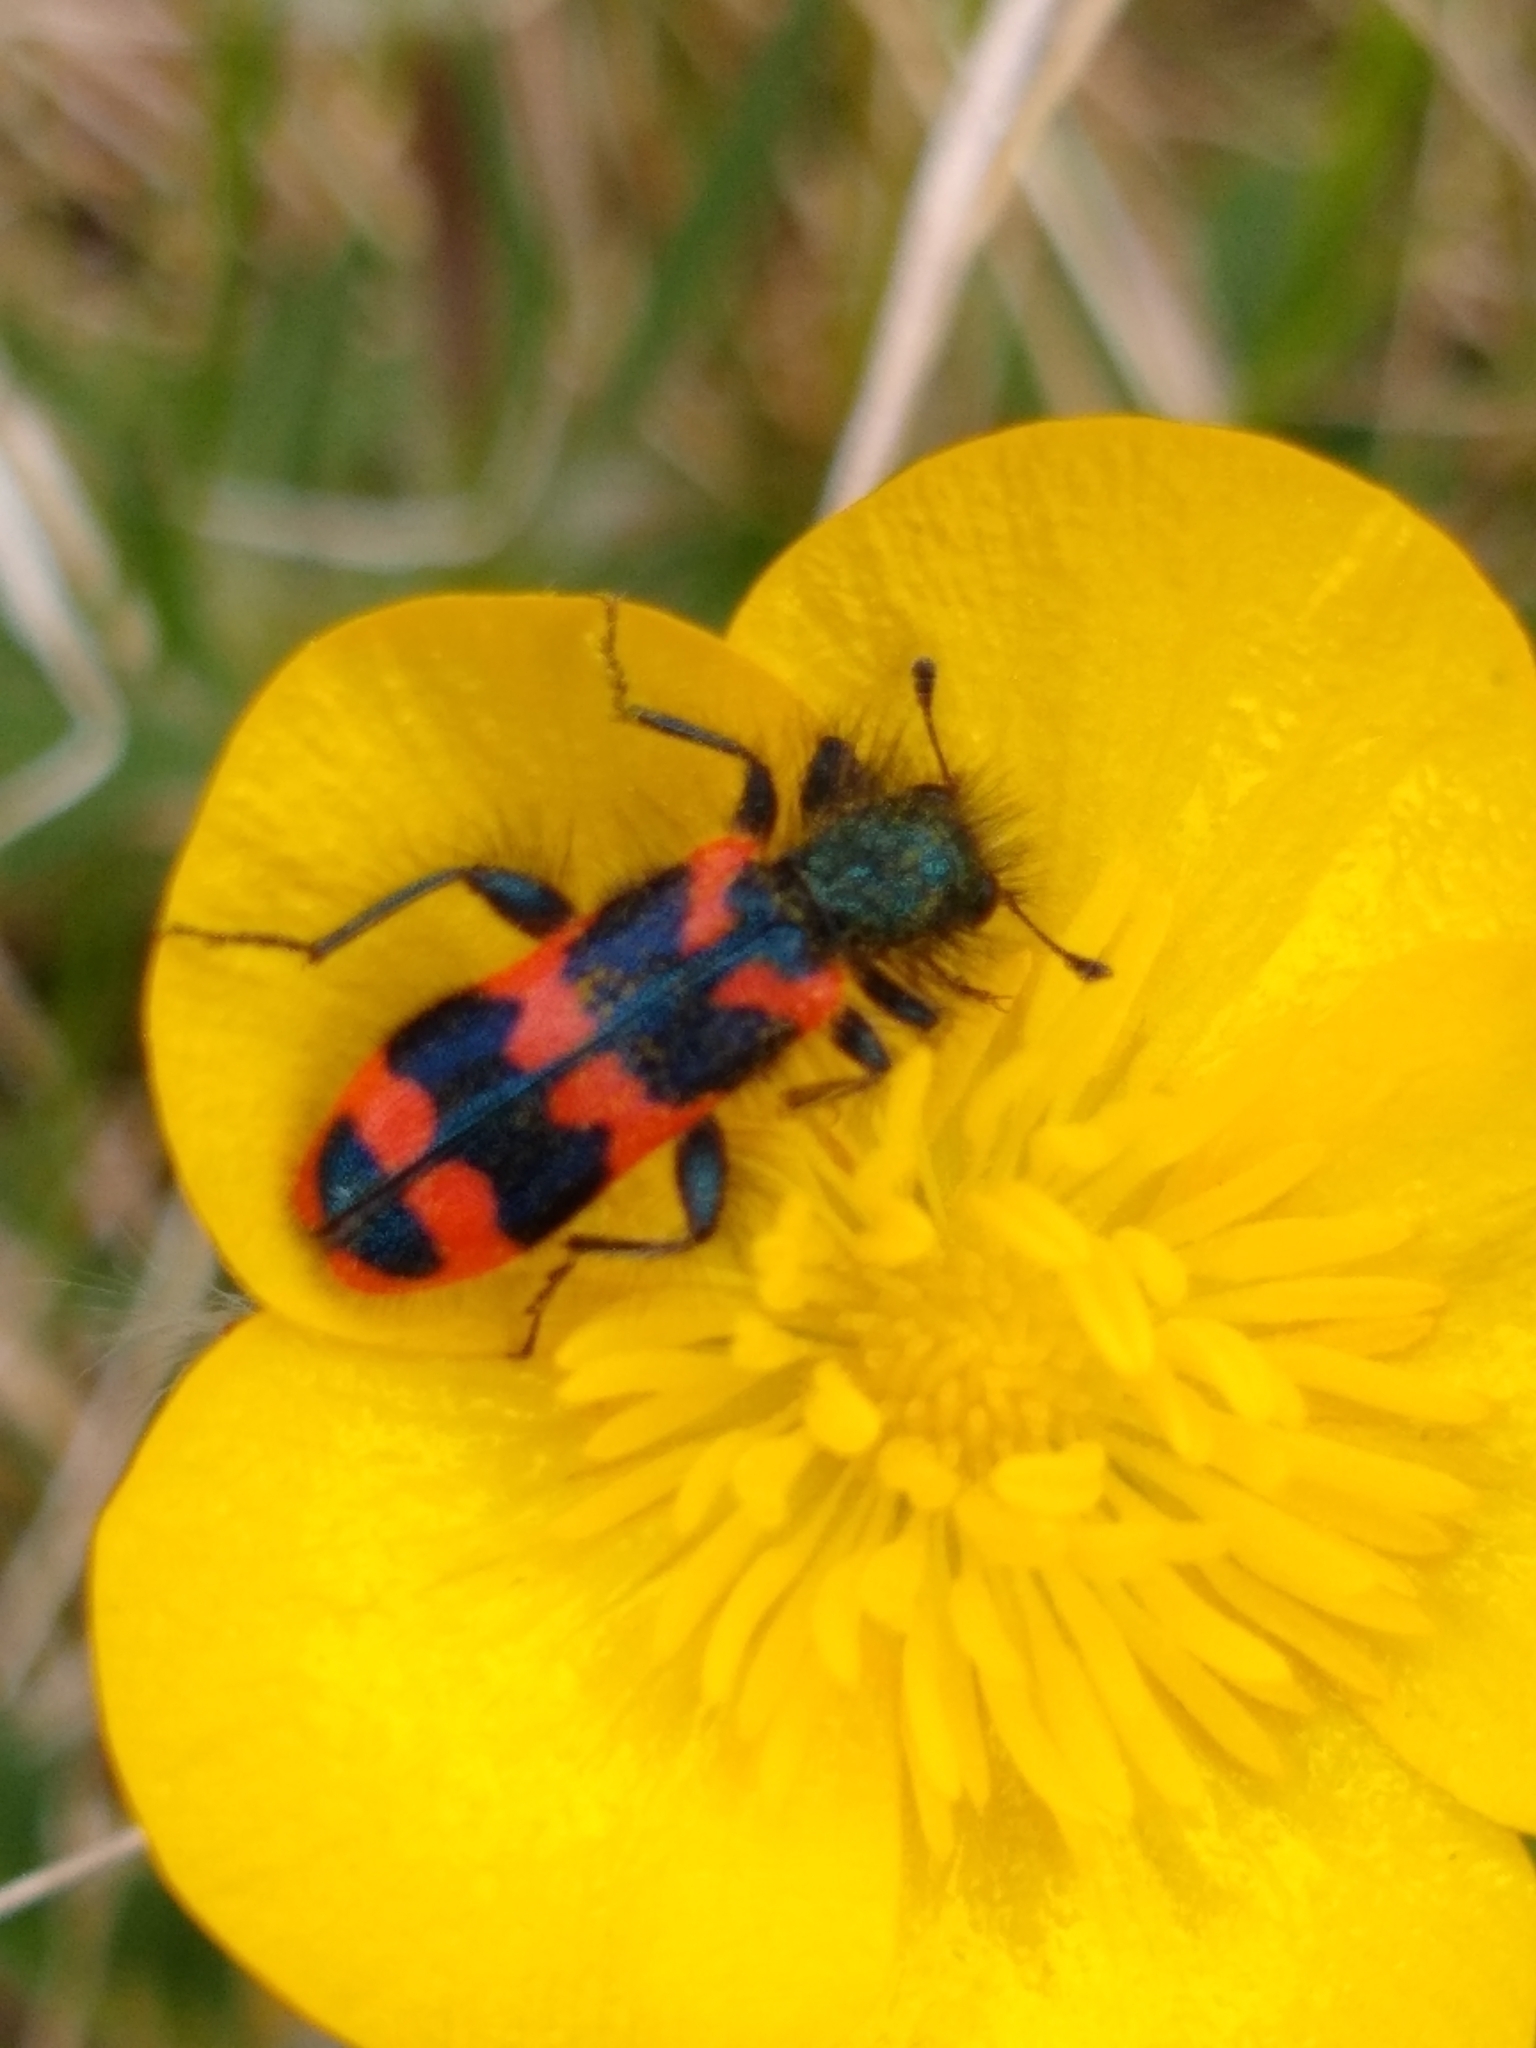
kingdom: Animalia
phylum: Arthropoda
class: Insecta
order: Coleoptera
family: Cleridae
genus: Trichodes
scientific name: Trichodes alvearius
